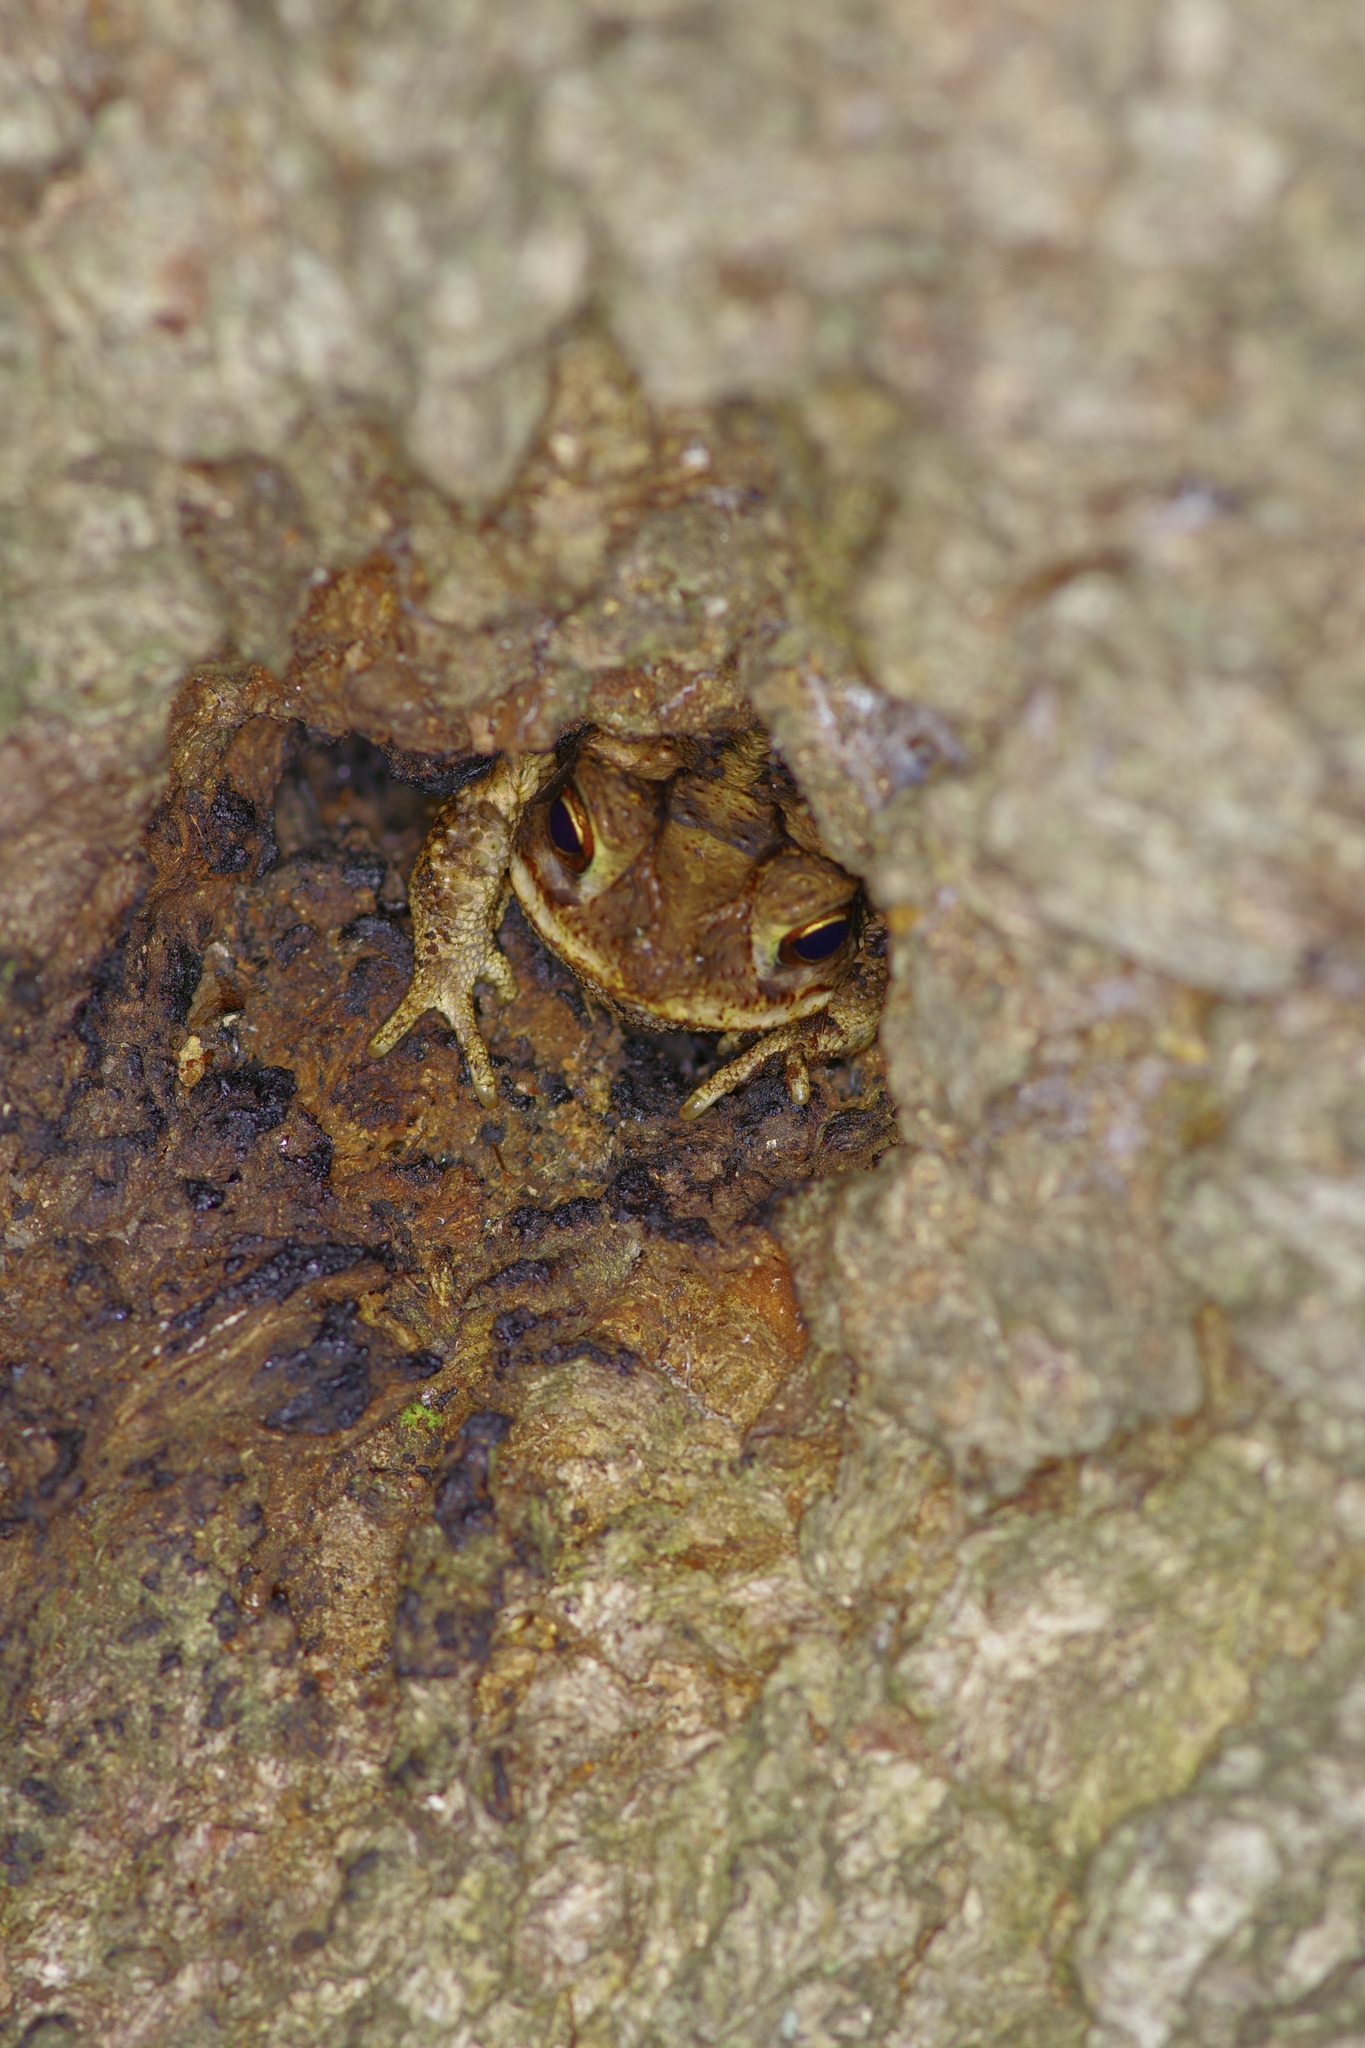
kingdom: Animalia
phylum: Chordata
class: Amphibia
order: Anura
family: Bufonidae
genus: Incilius
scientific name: Incilius nebulifer
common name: Gulf coast toad
